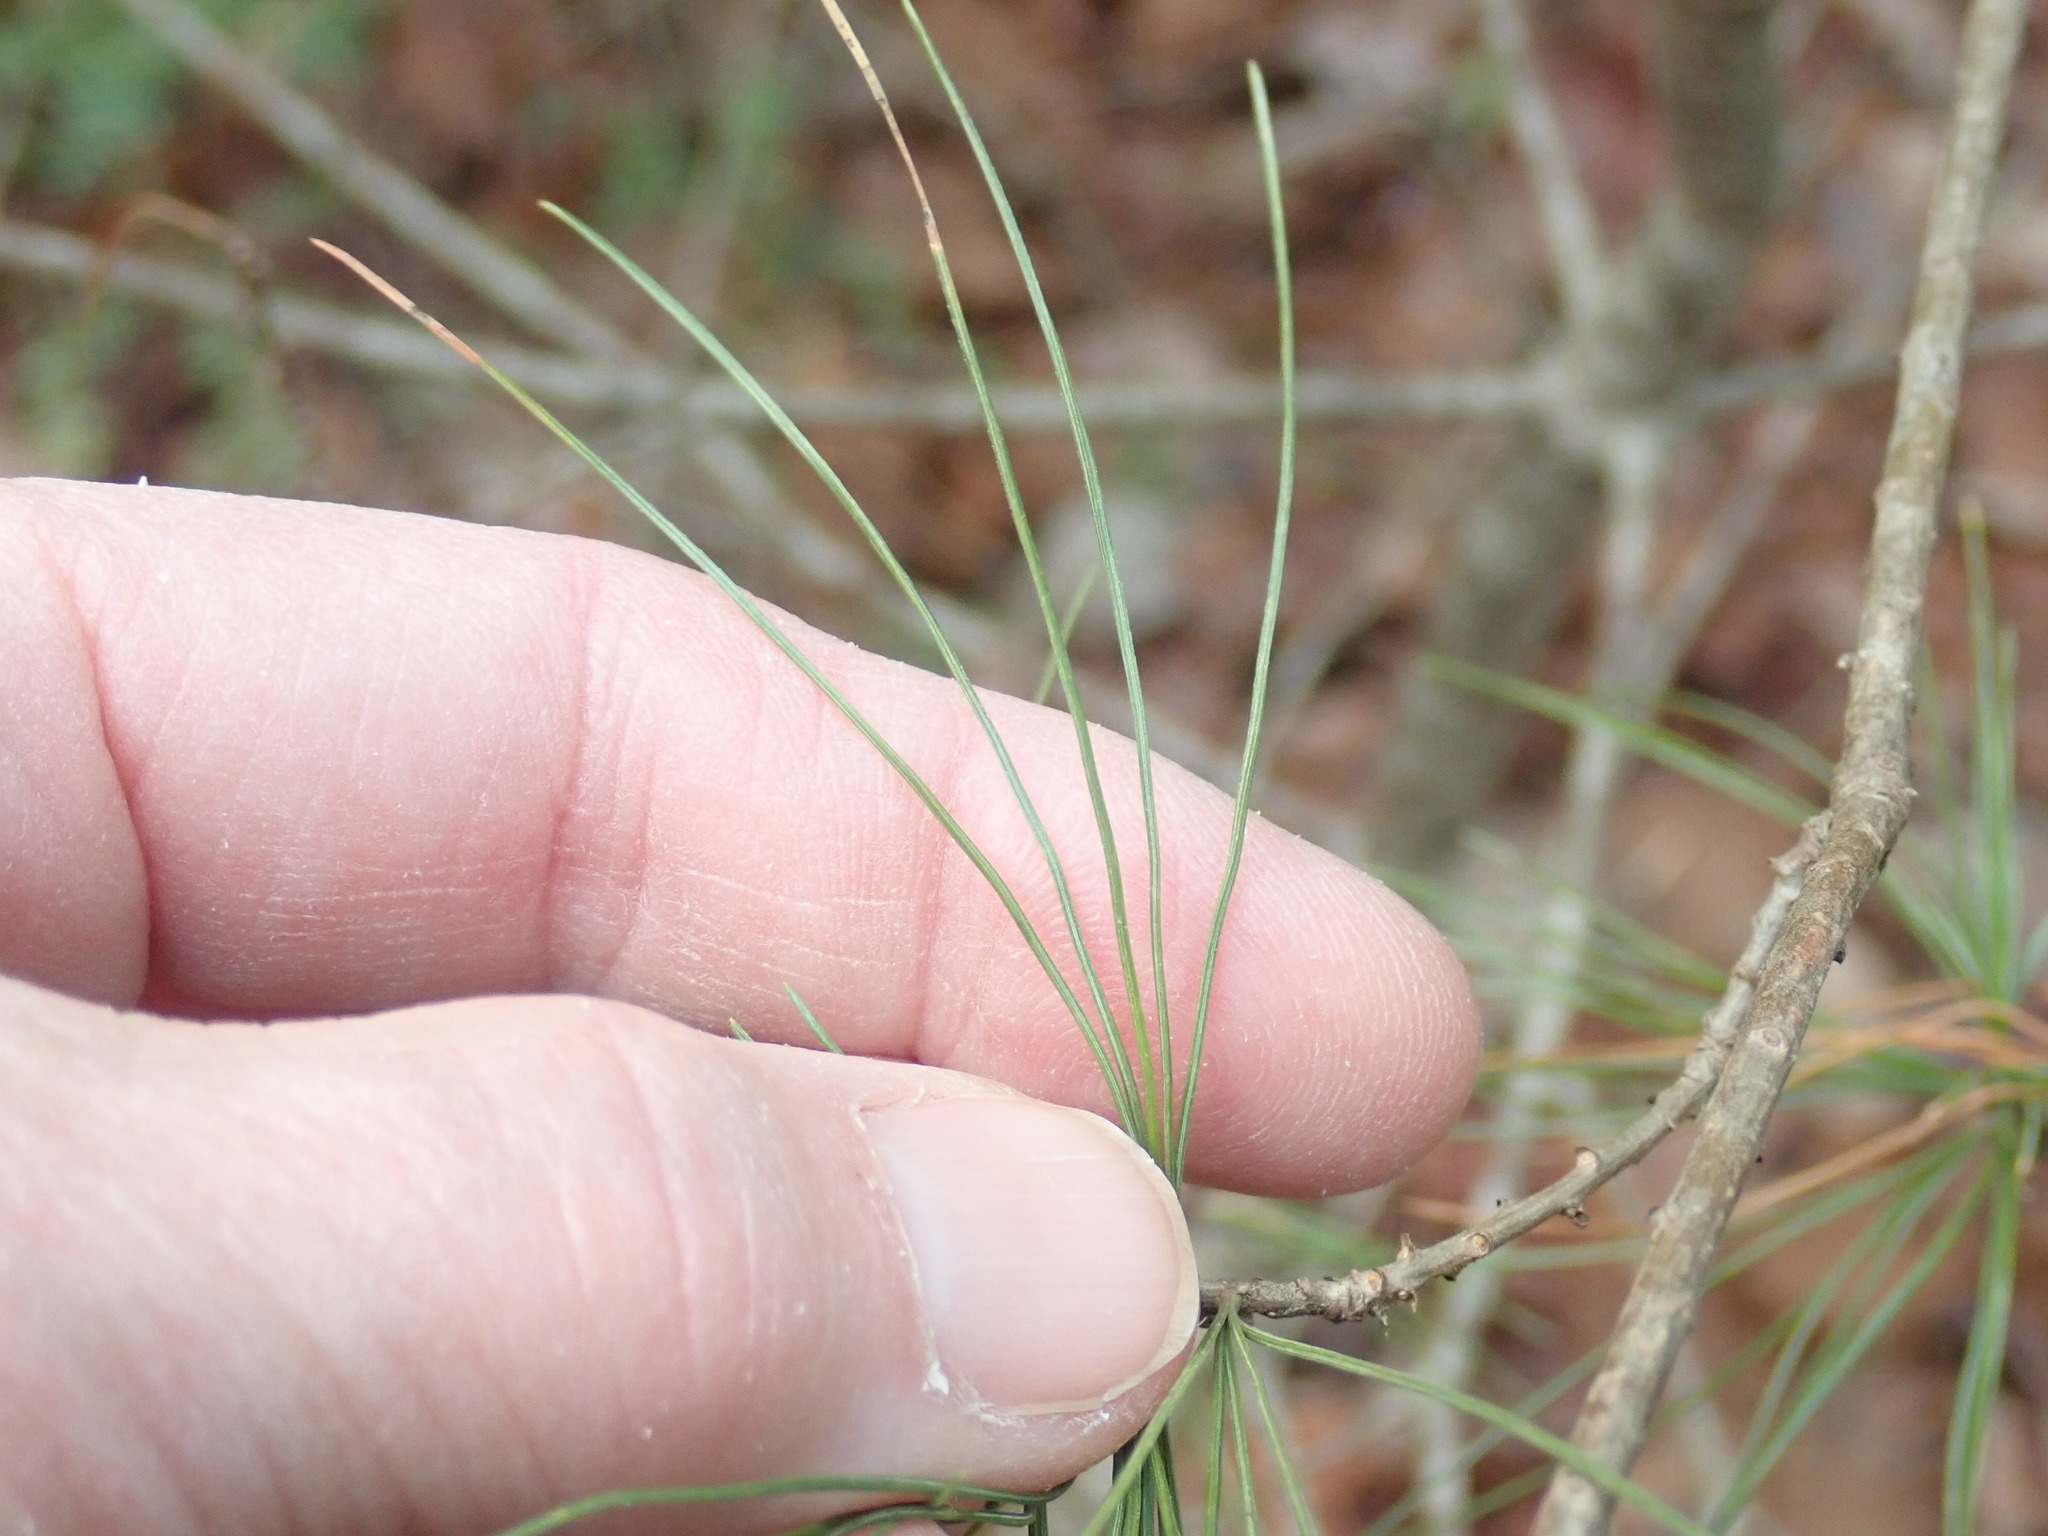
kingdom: Plantae
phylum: Tracheophyta
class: Pinopsida
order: Pinales
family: Pinaceae
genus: Pinus
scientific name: Pinus strobus
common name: Weymouth pine
